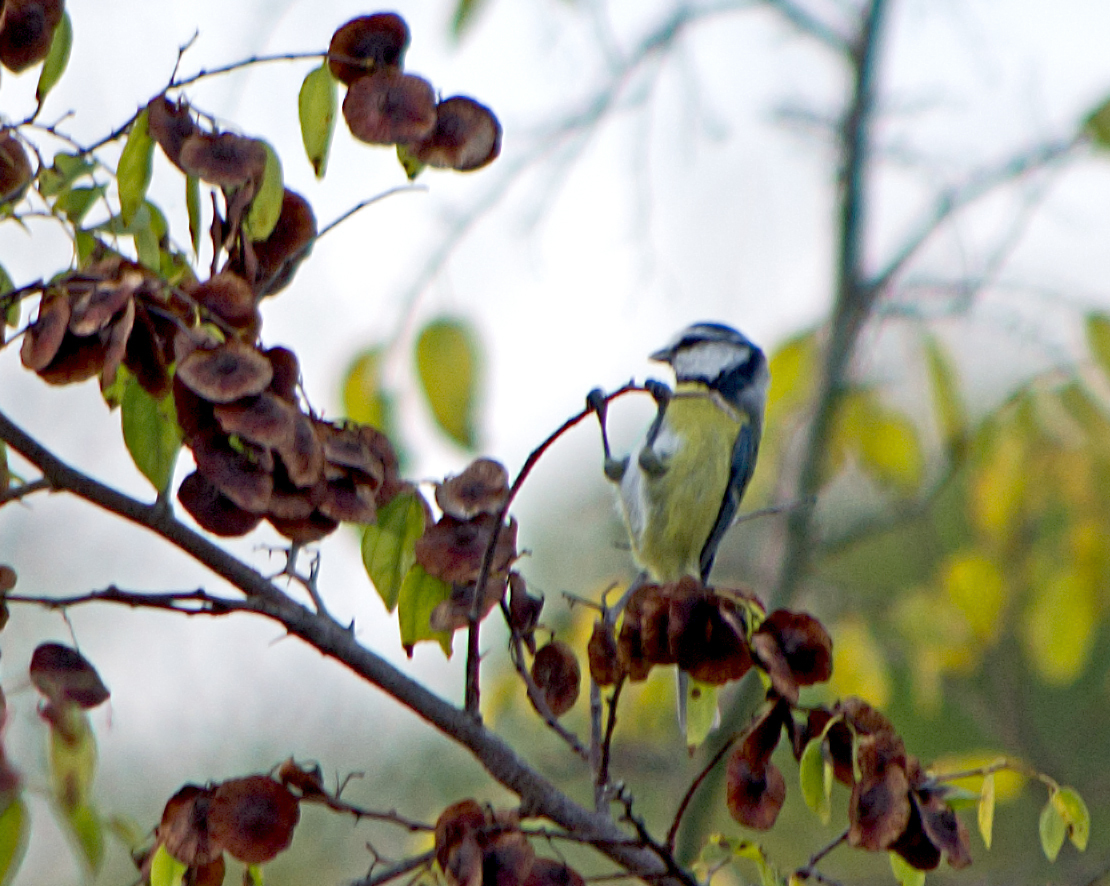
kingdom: Animalia
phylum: Chordata
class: Aves
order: Passeriformes
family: Paridae
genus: Cyanistes
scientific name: Cyanistes caeruleus
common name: Eurasian blue tit
